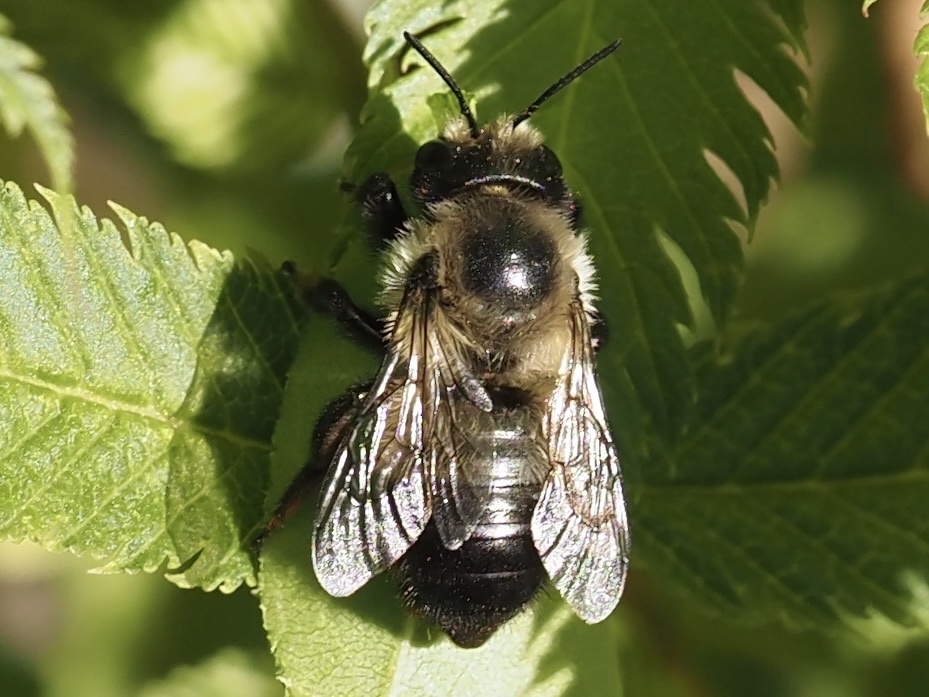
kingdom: Animalia
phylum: Arthropoda
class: Insecta
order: Hymenoptera
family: Megachilidae
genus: Megachile
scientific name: Megachile melanophaea
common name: Black-and-gray leafcutter bee
